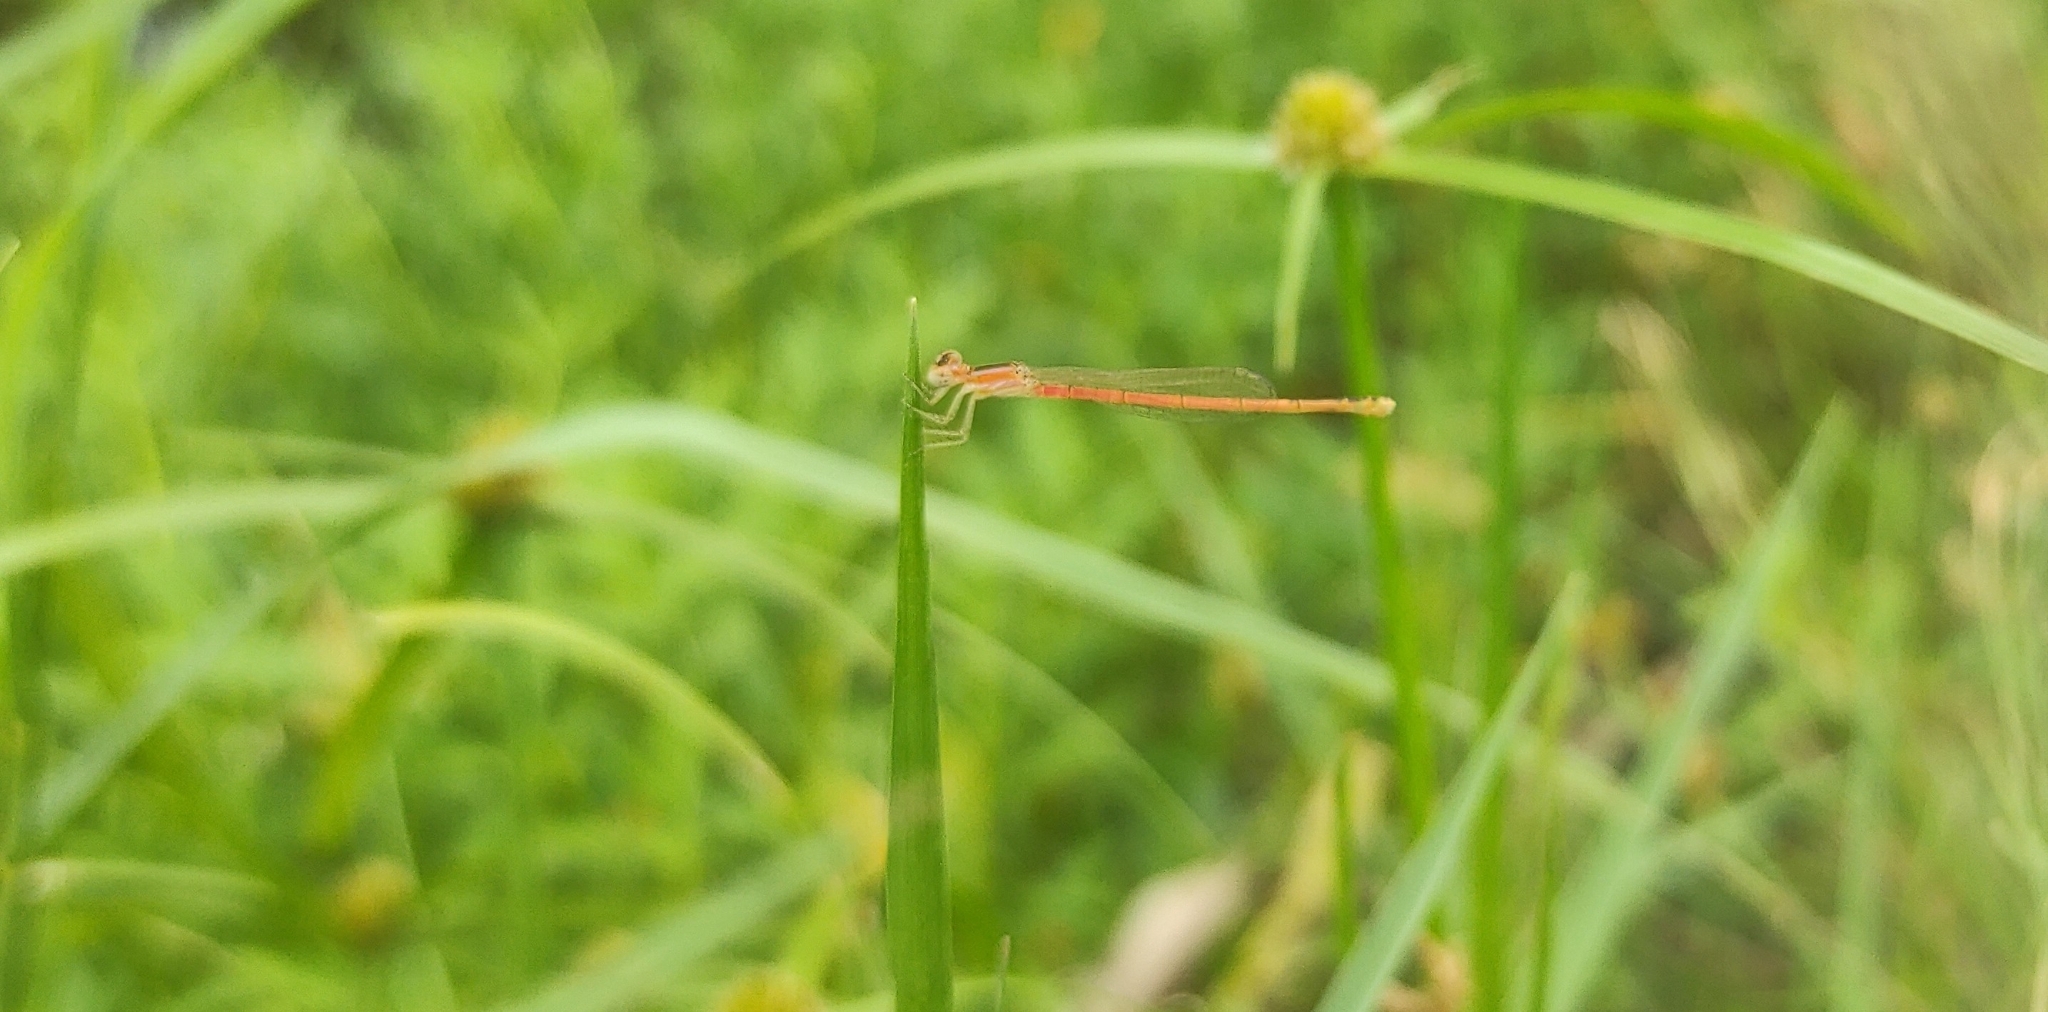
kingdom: Animalia
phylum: Arthropoda
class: Insecta
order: Odonata
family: Coenagrionidae
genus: Agriocnemis
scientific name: Agriocnemis pygmaea
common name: Pygmy wisp
